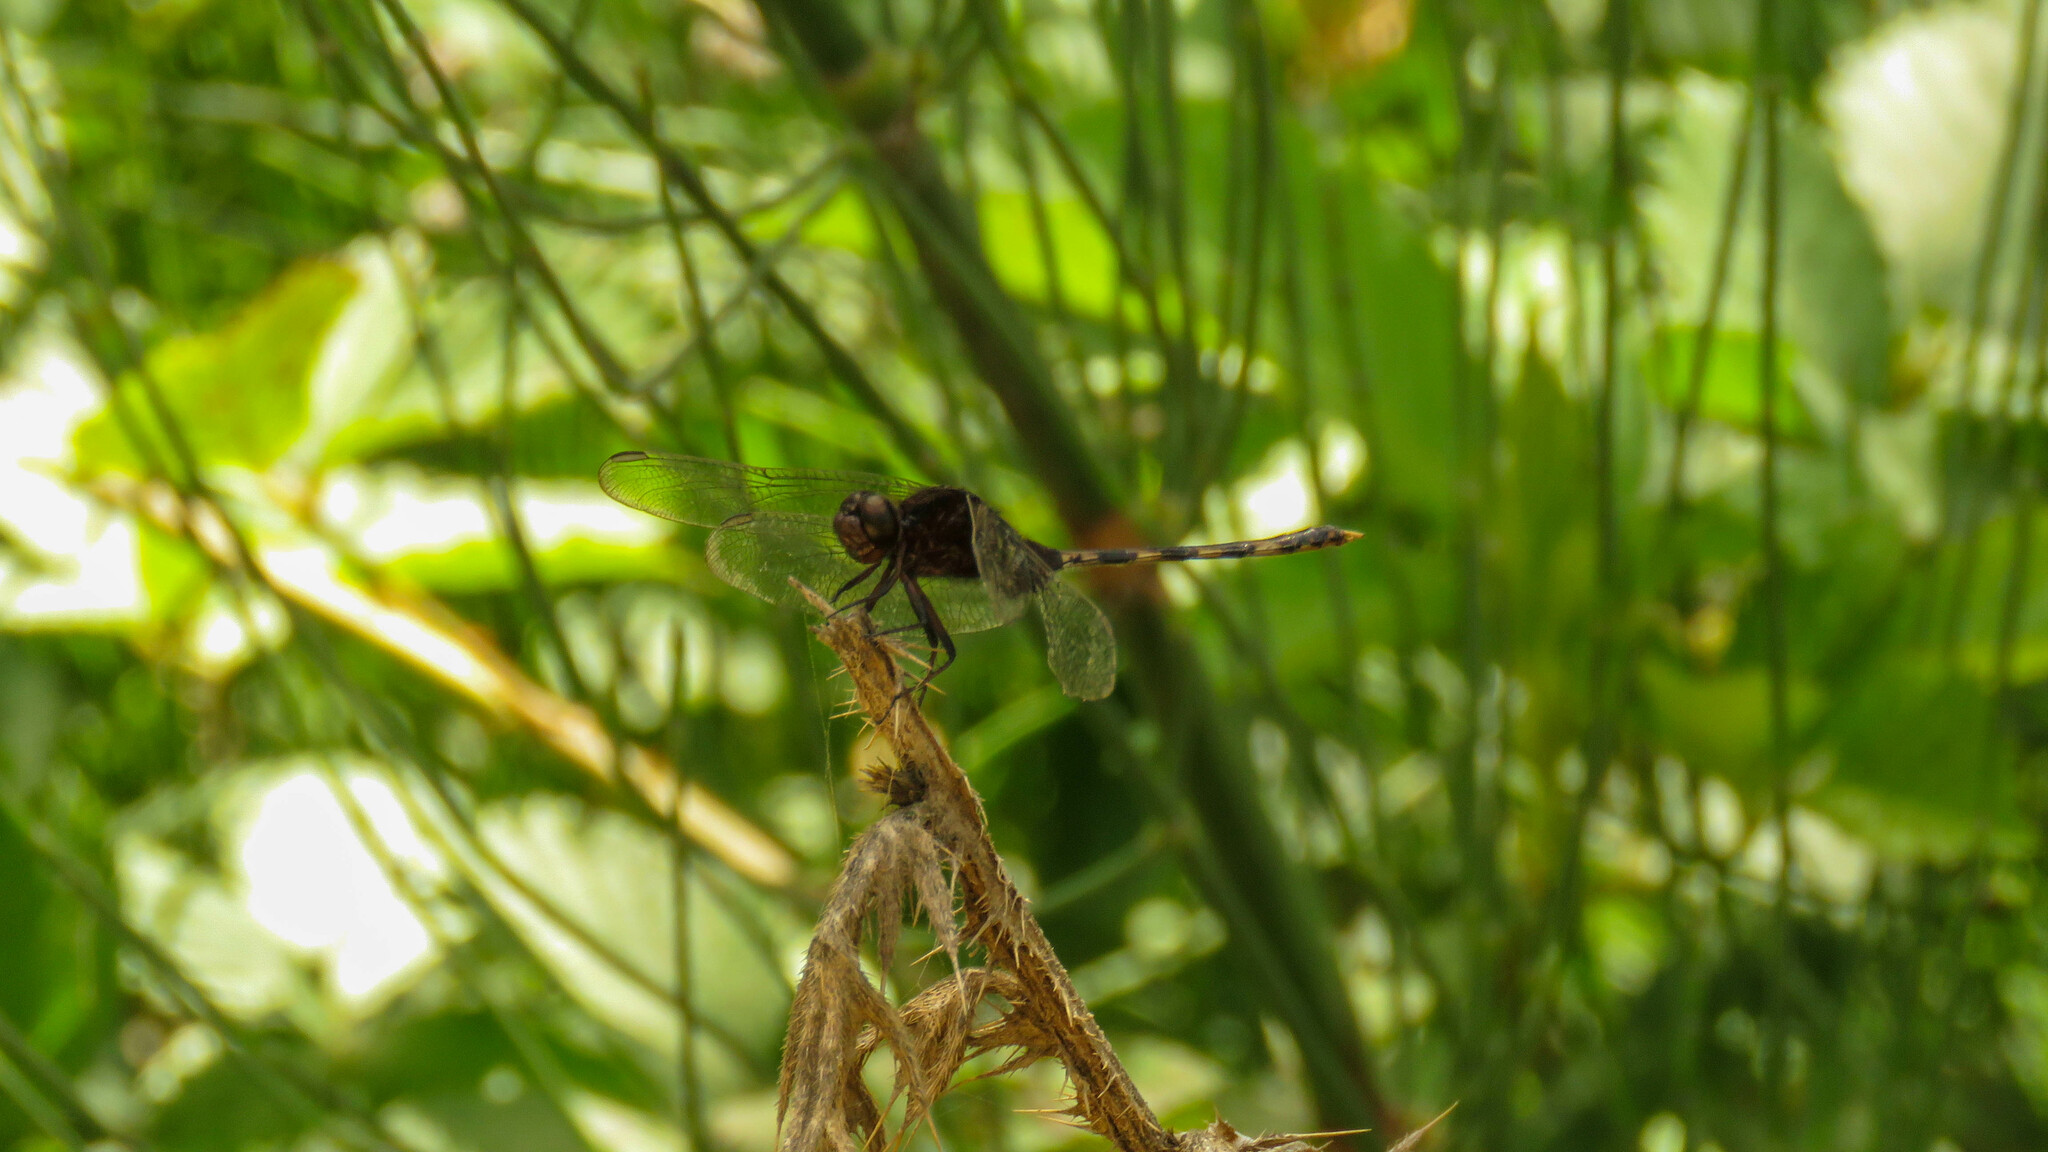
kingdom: Animalia
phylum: Arthropoda
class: Insecta
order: Odonata
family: Libellulidae
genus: Erythemis
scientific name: Erythemis plebeja
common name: Pin-tailed pondhawk
